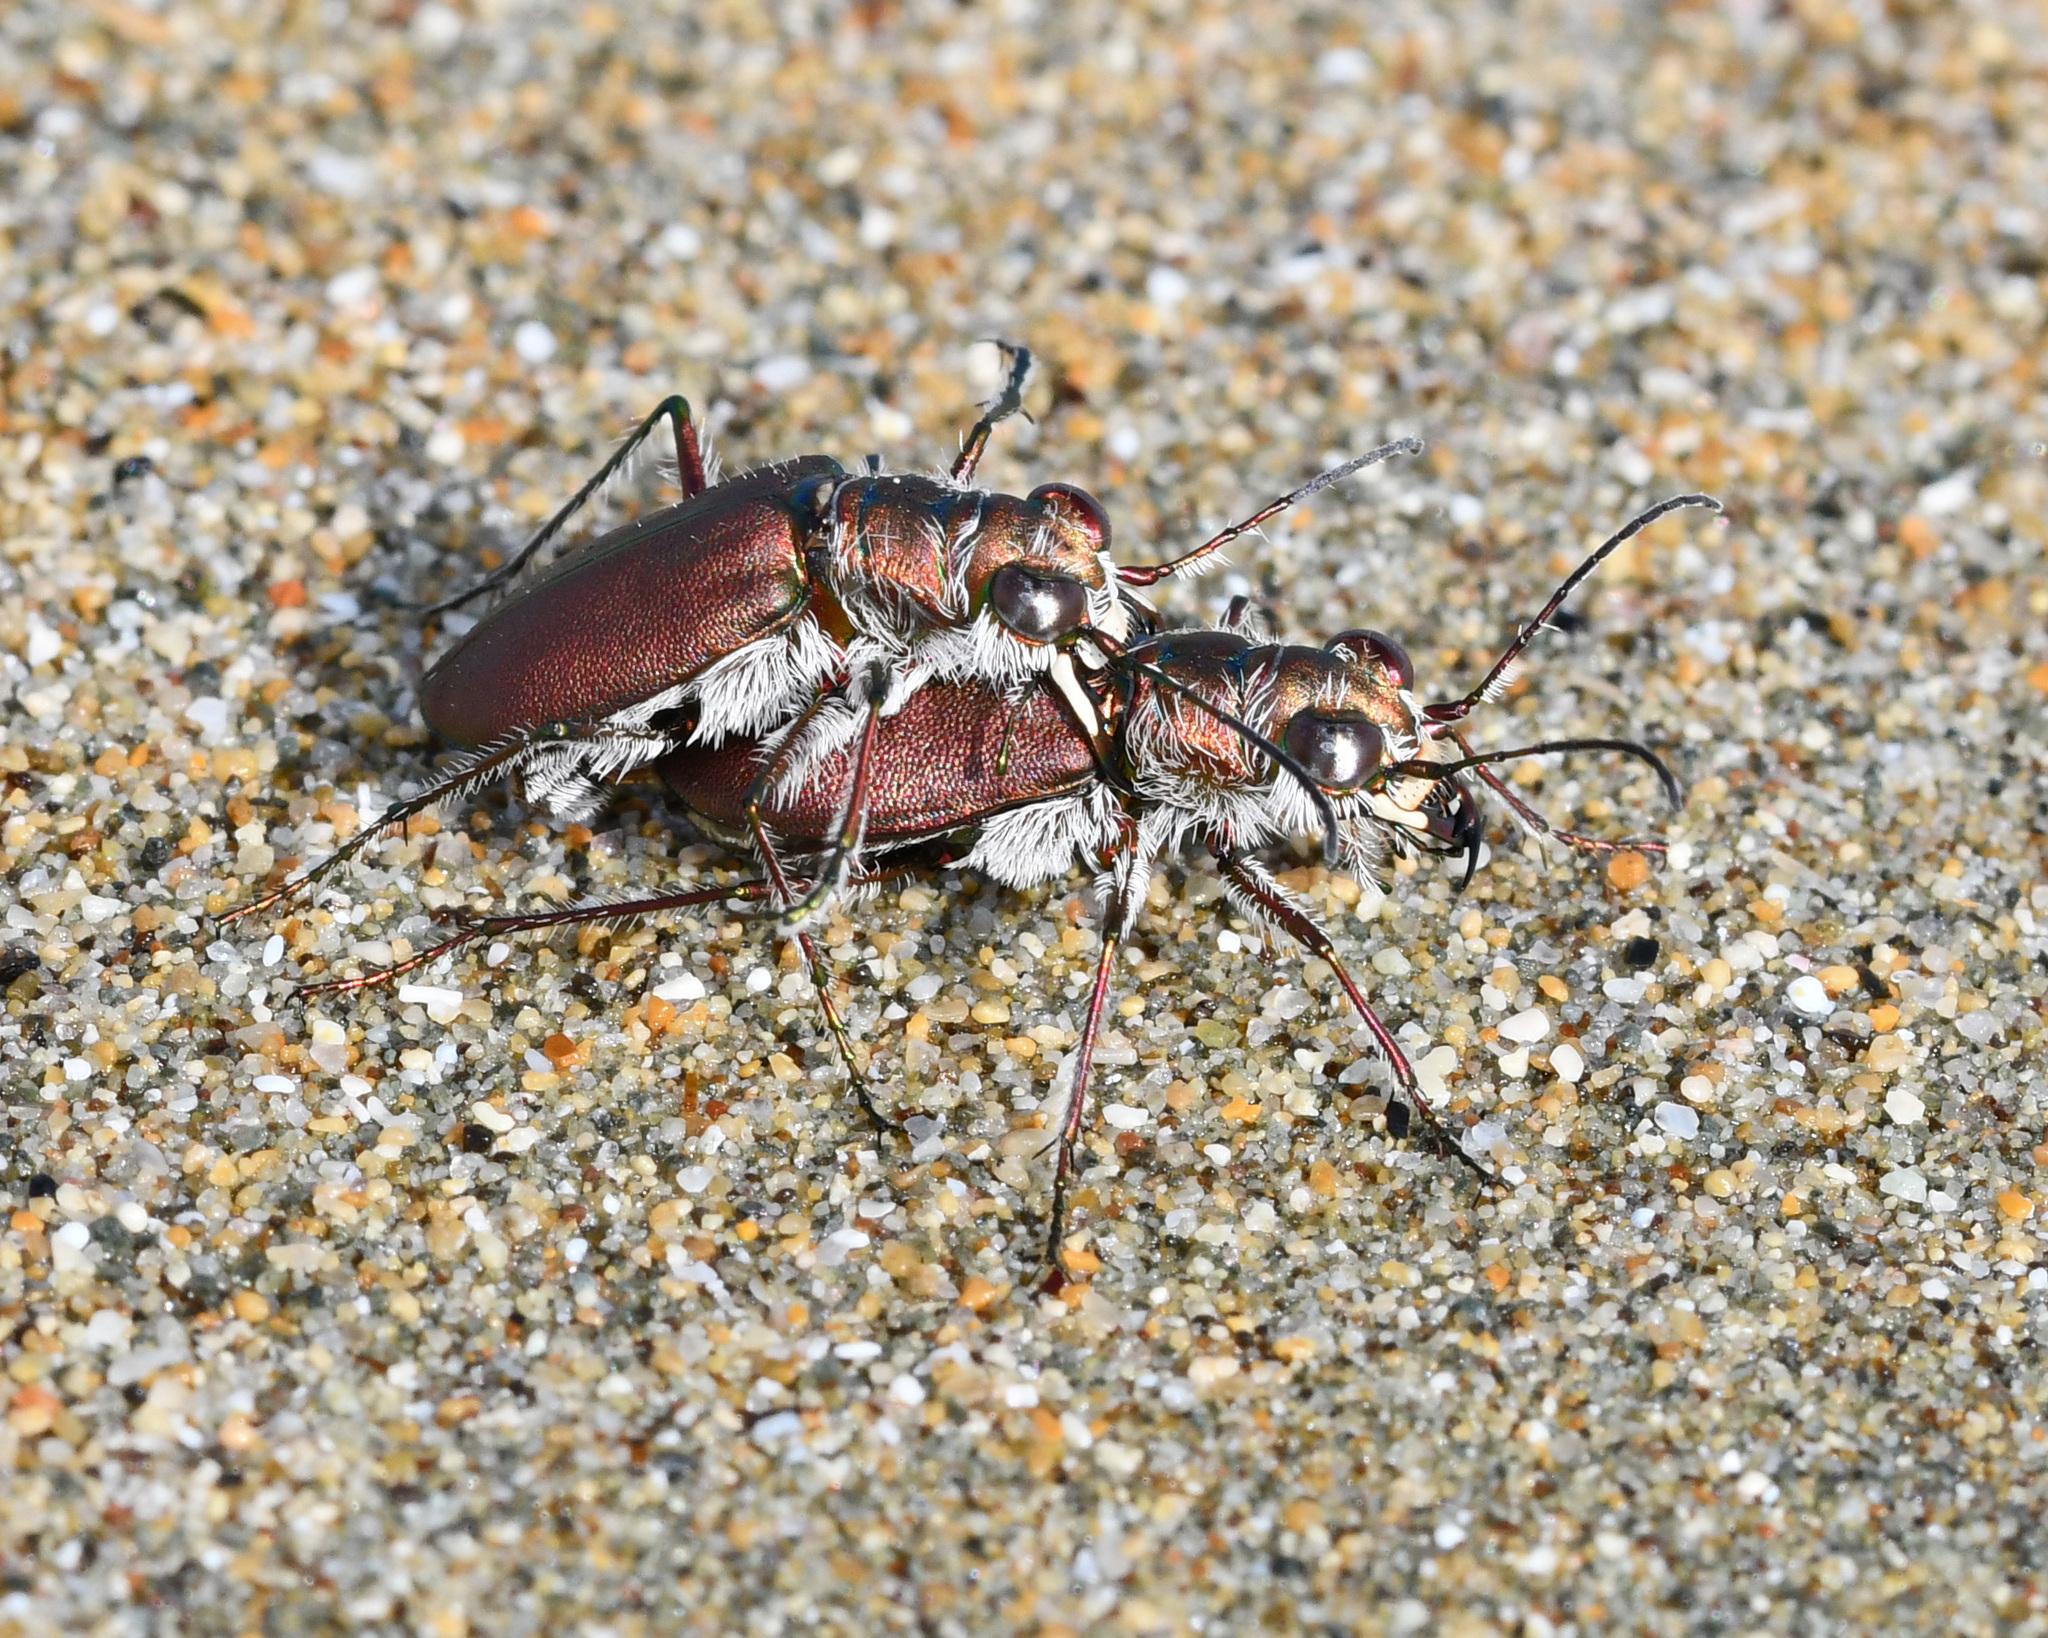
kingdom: Animalia
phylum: Arthropoda
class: Insecta
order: Coleoptera
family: Carabidae
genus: Cicindela
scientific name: Cicindela concolor
